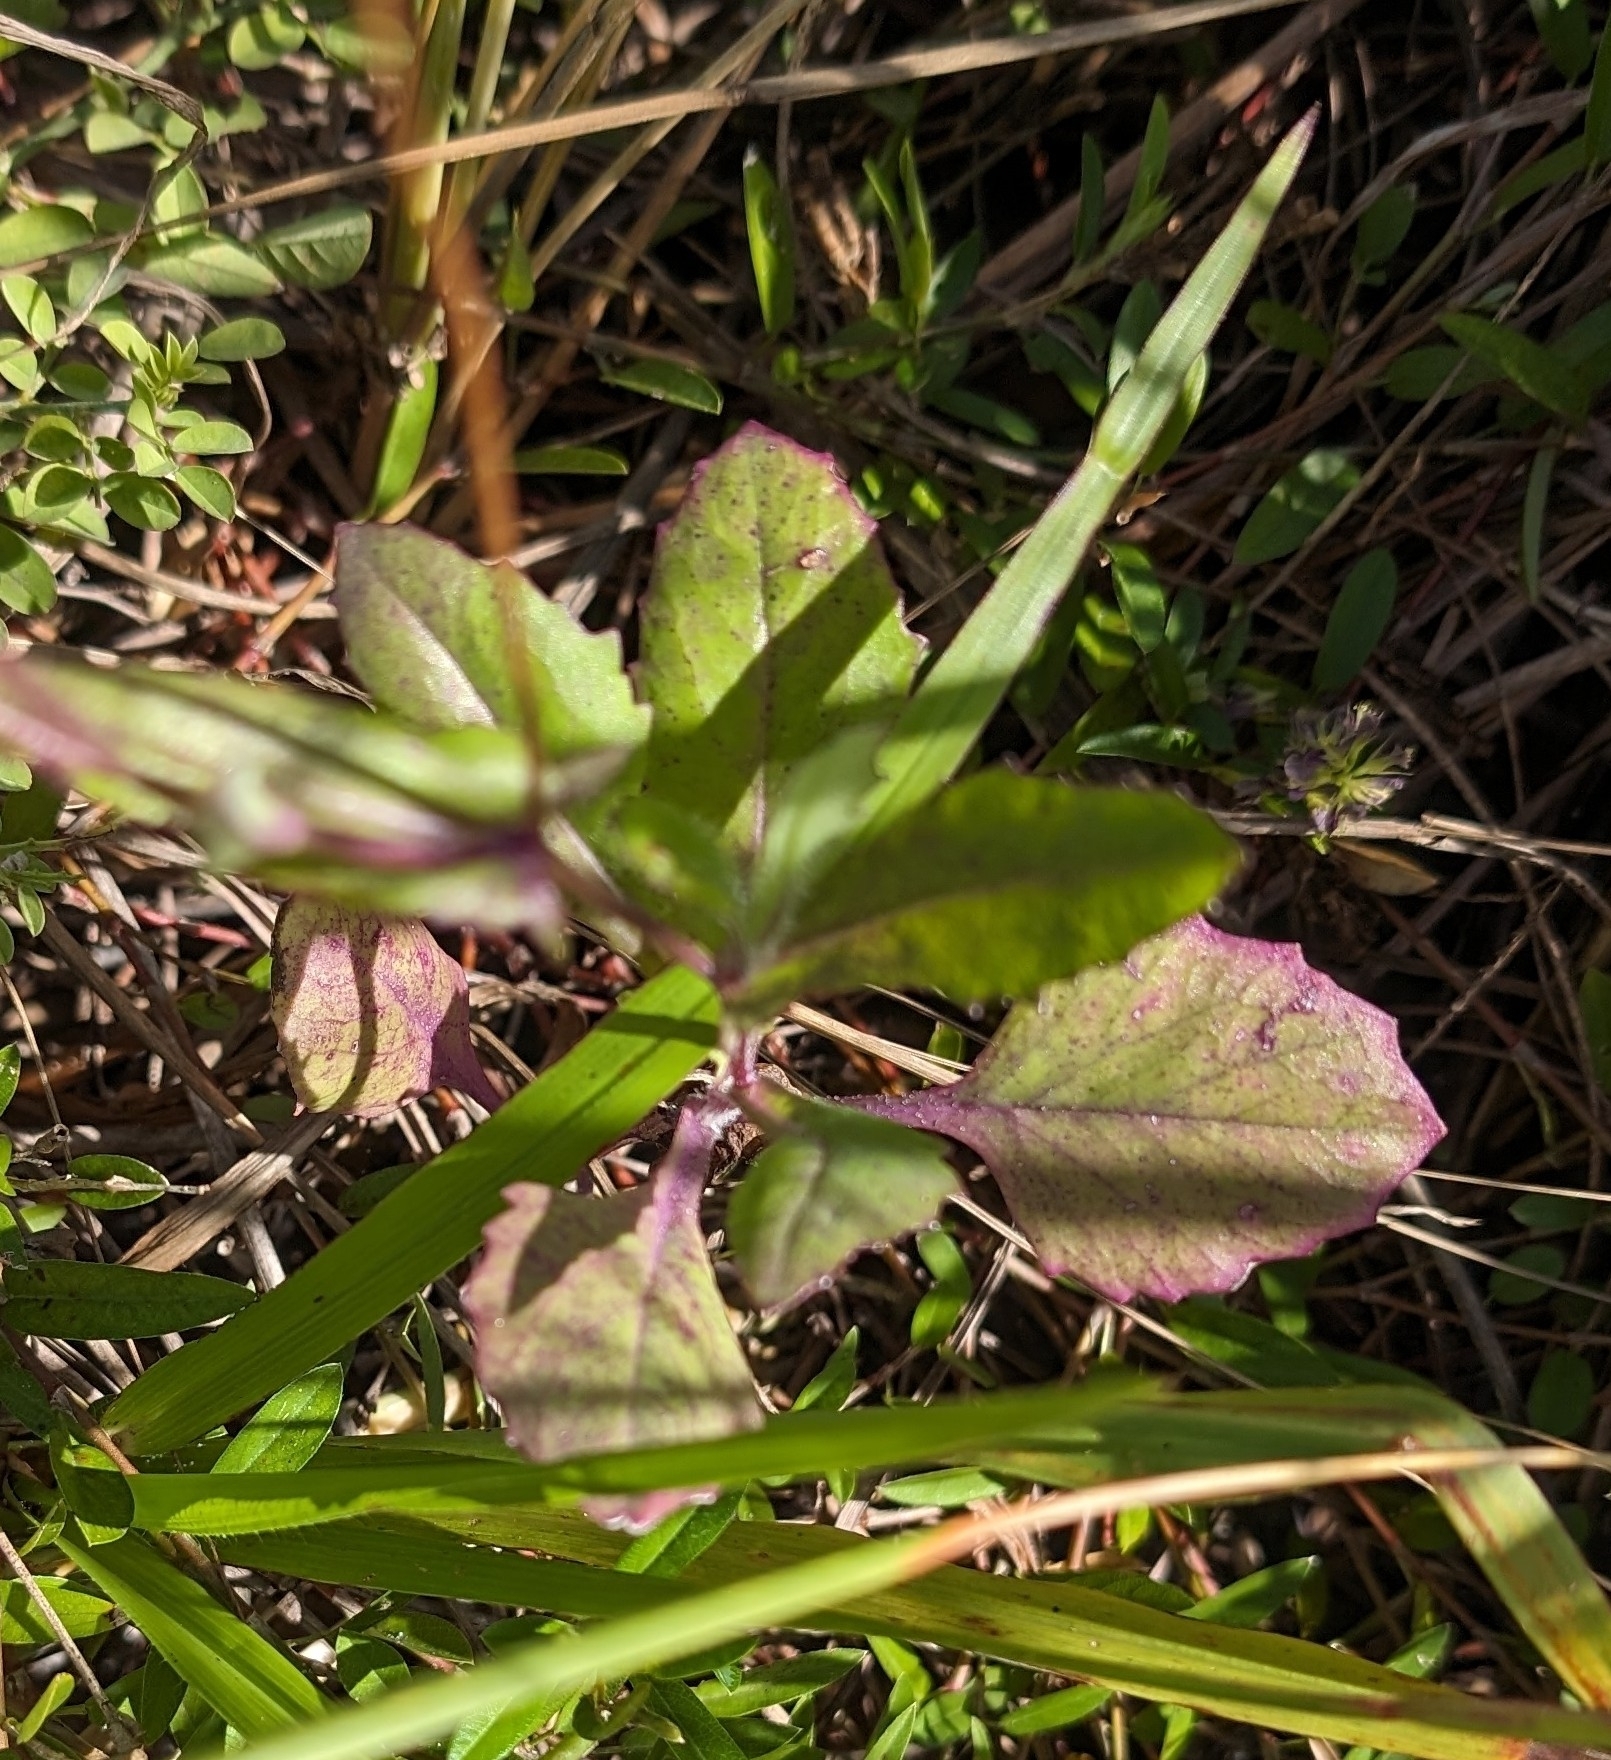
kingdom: Plantae
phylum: Tracheophyta
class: Magnoliopsida
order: Asterales
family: Asteraceae
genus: Emilia
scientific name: Emilia fosbergii
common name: Florida tasselflower
